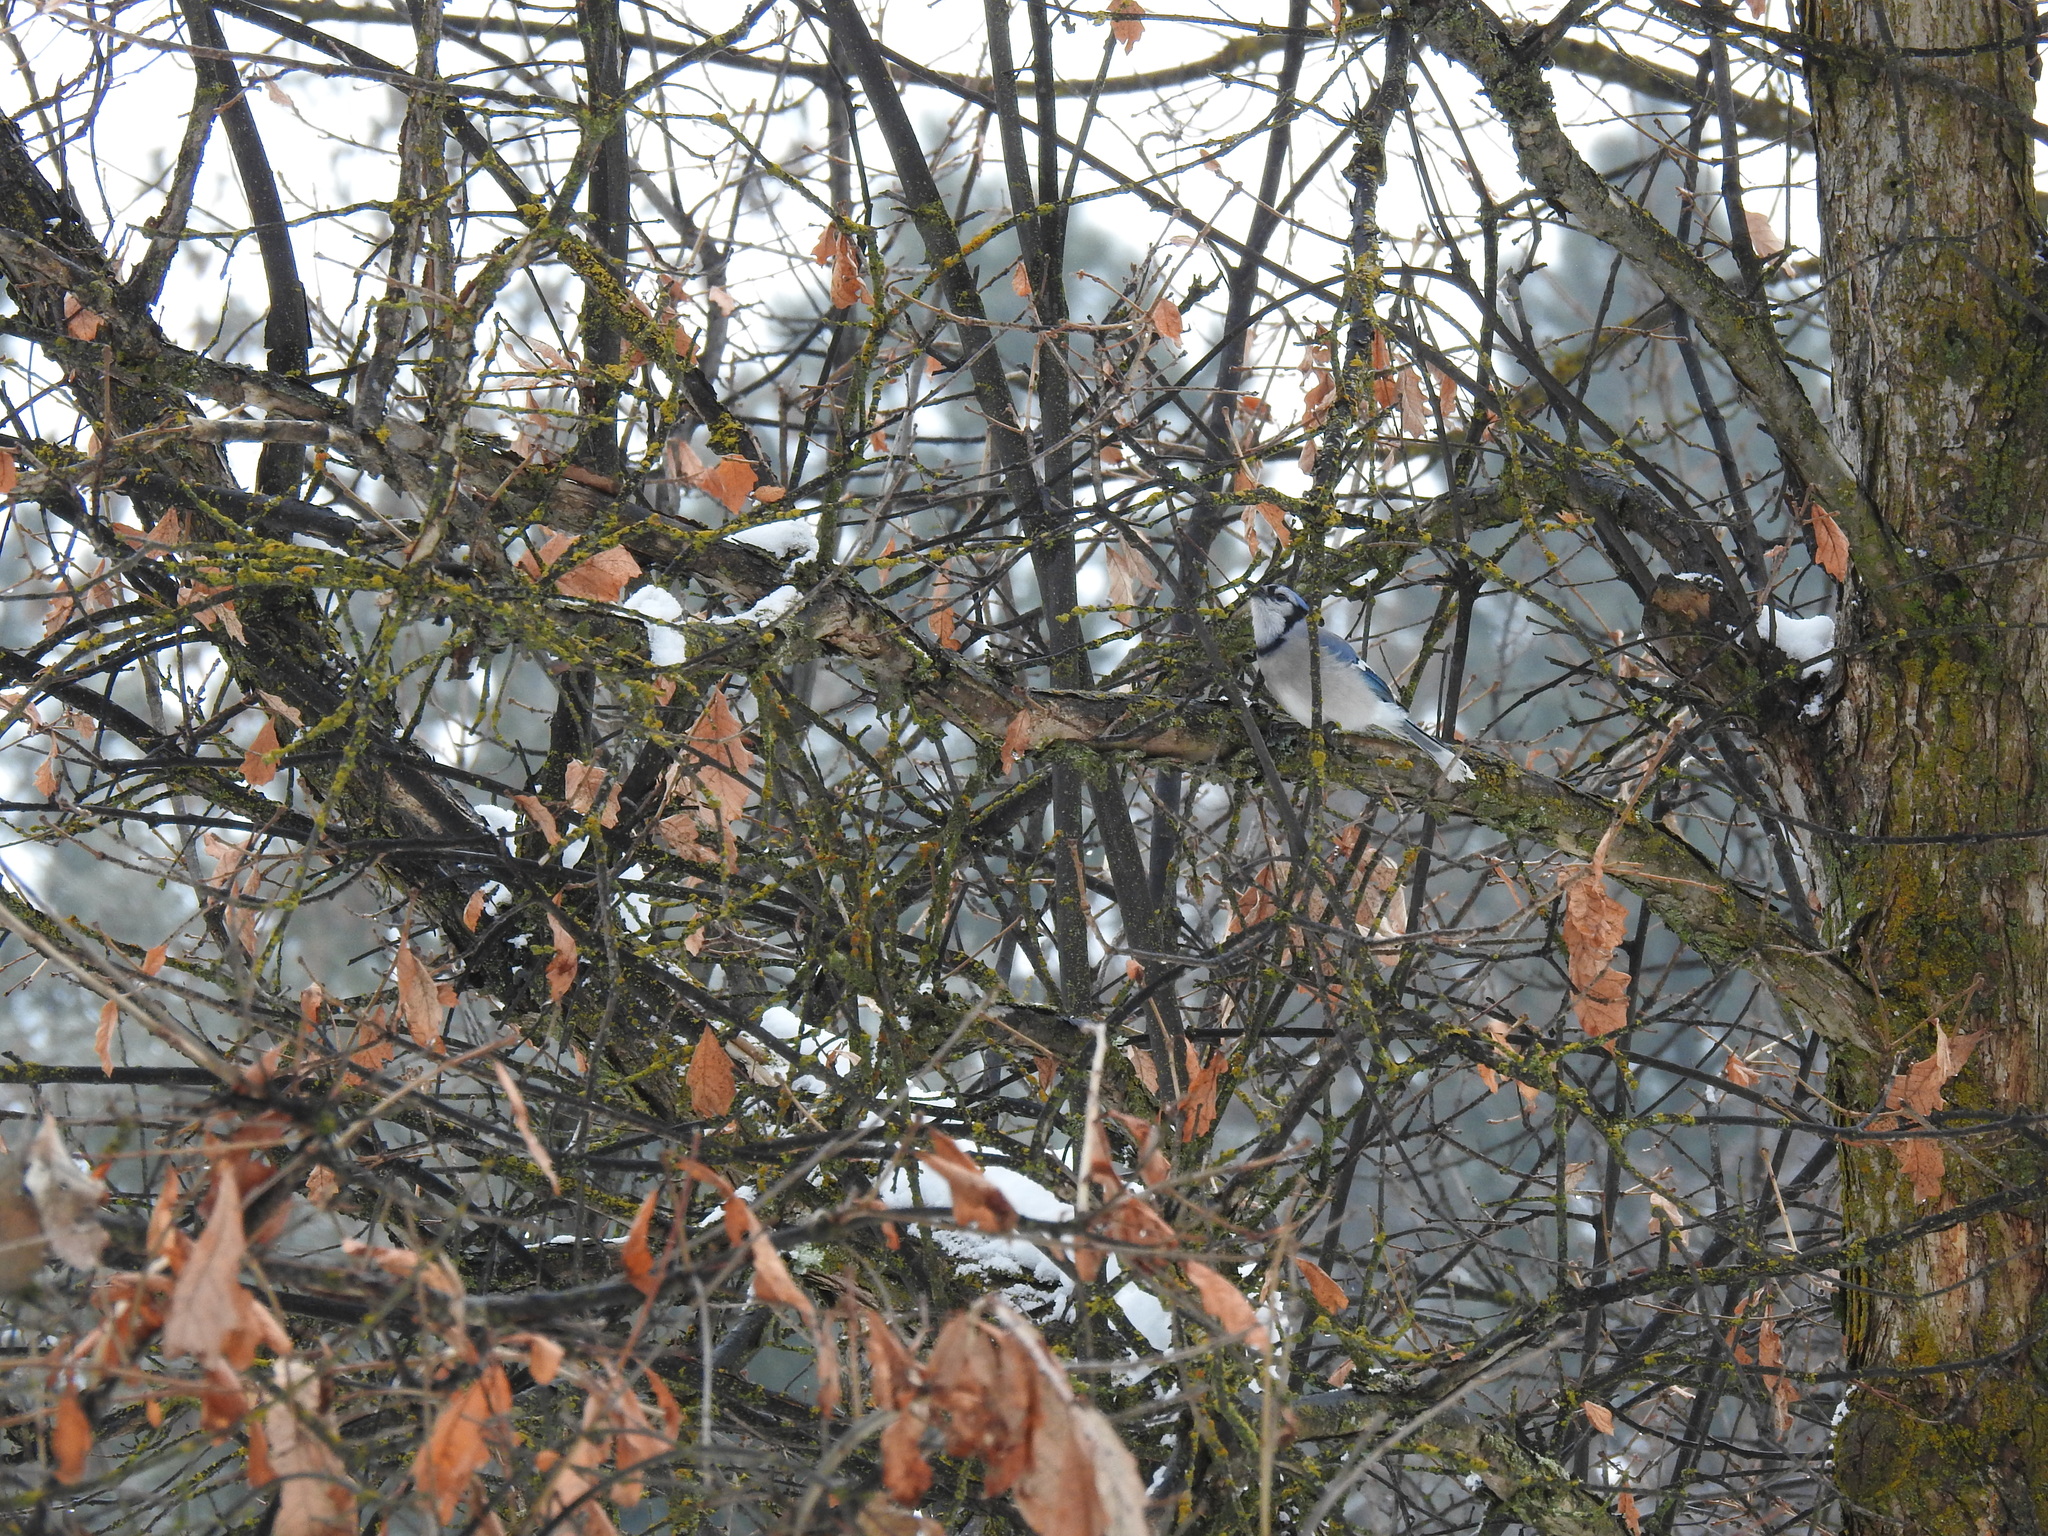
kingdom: Animalia
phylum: Chordata
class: Aves
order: Passeriformes
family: Corvidae
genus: Cyanocitta
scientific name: Cyanocitta cristata
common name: Blue jay
